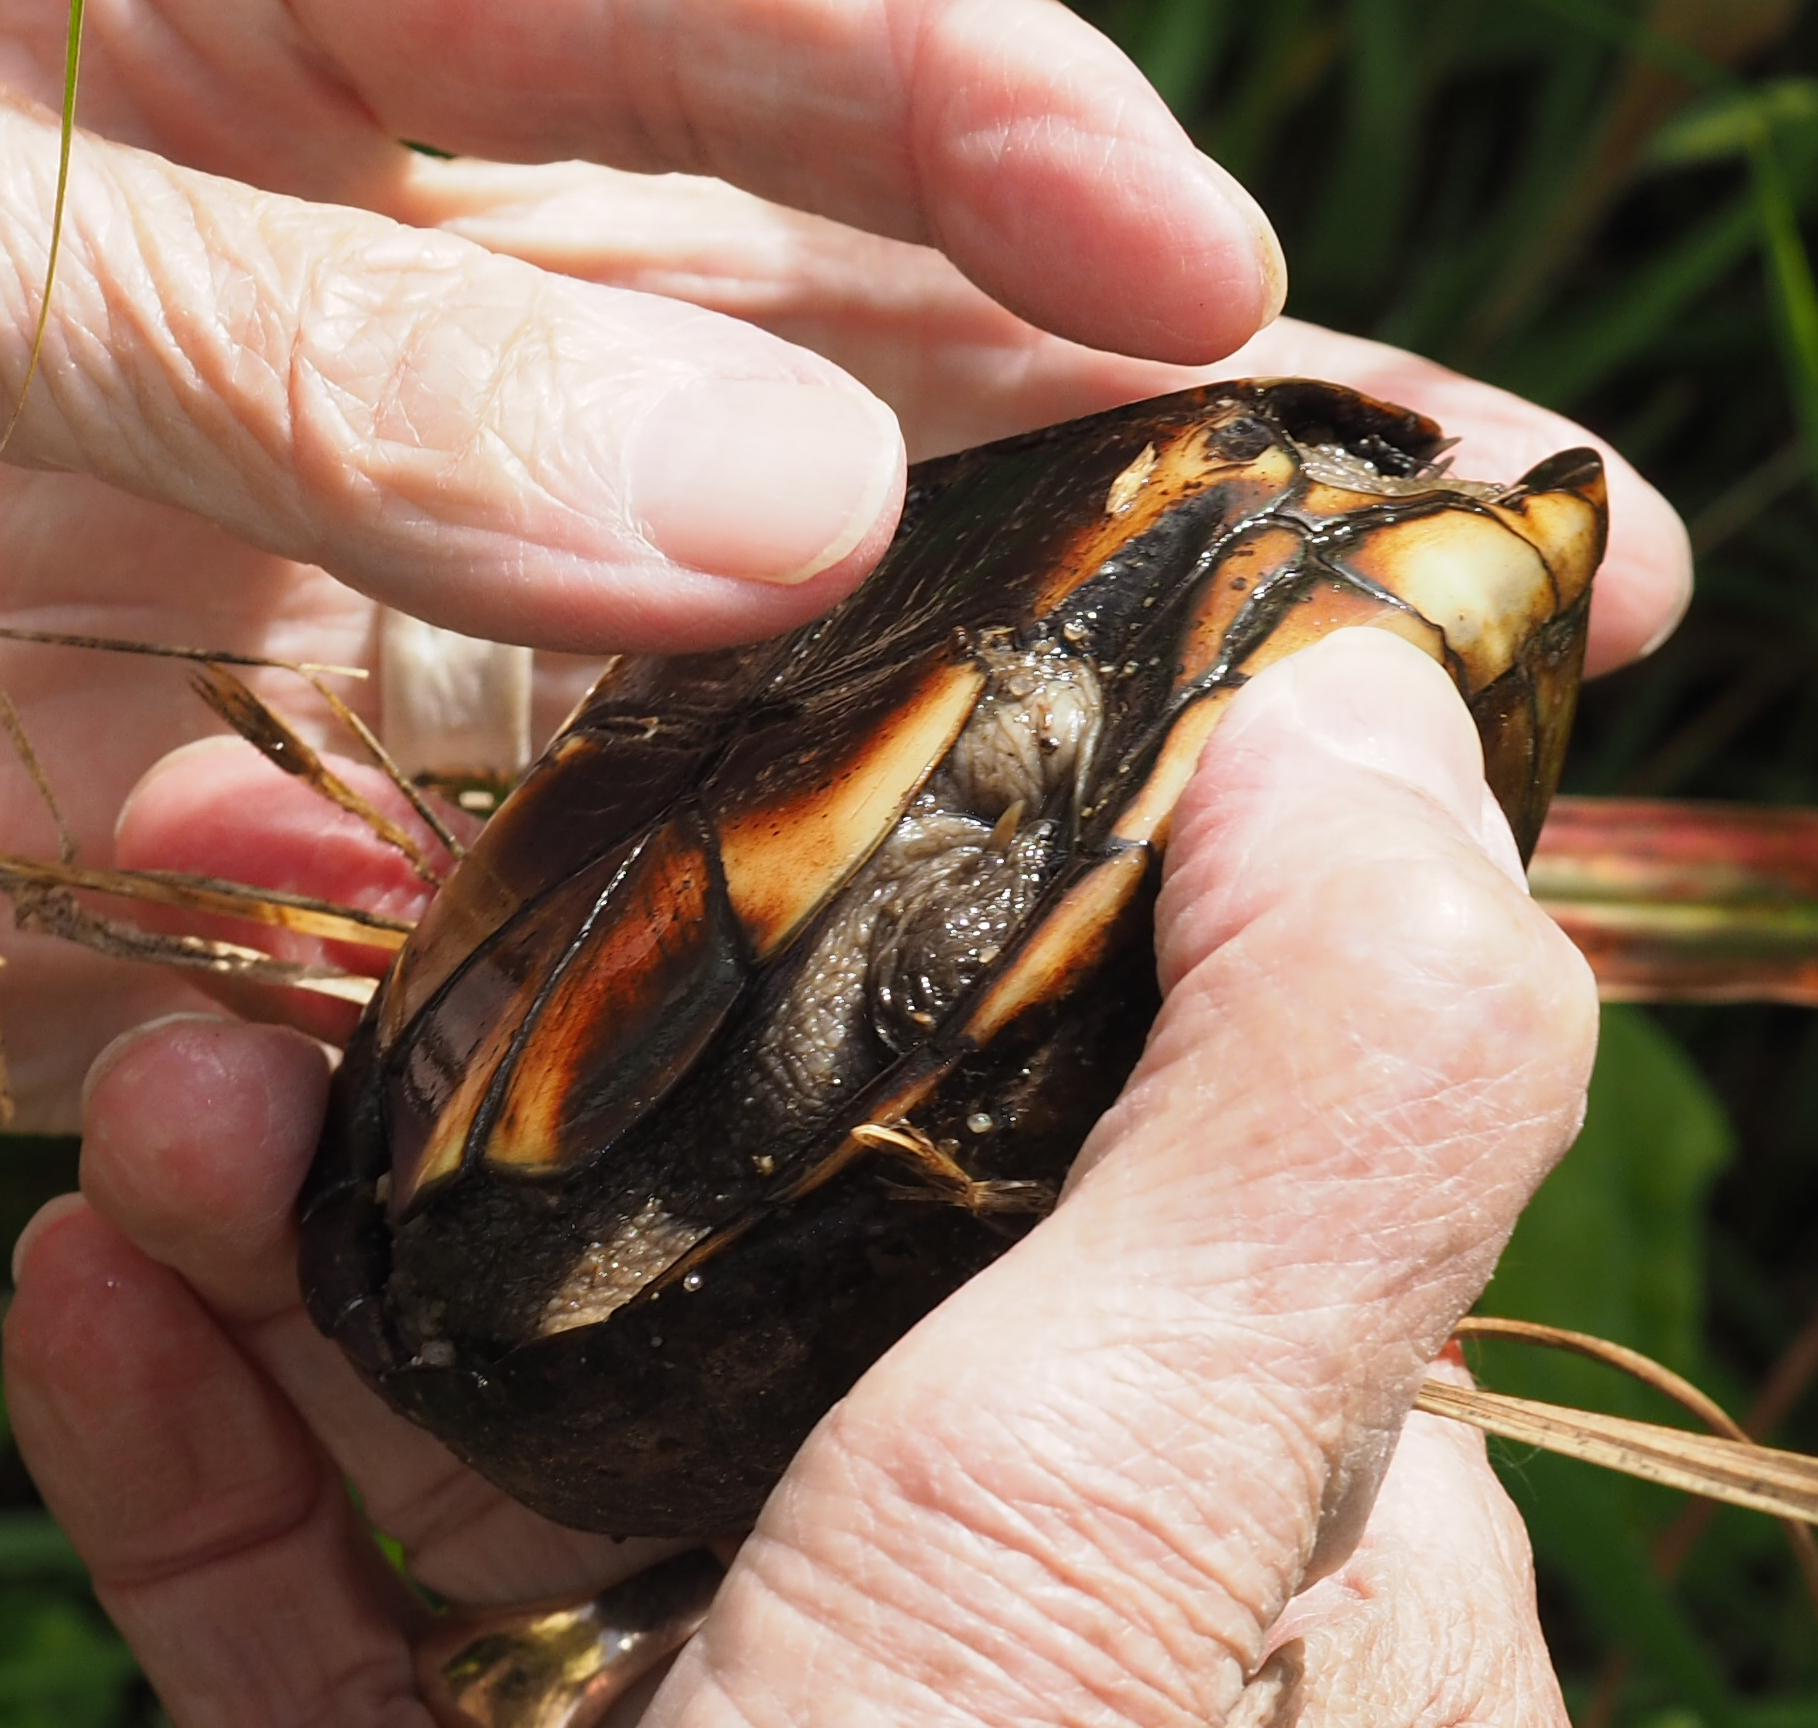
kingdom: Animalia
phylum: Chordata
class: Testudines
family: Kinosternidae
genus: Kinosternon
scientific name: Kinosternon subrubrum
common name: Eastern mud turtle
